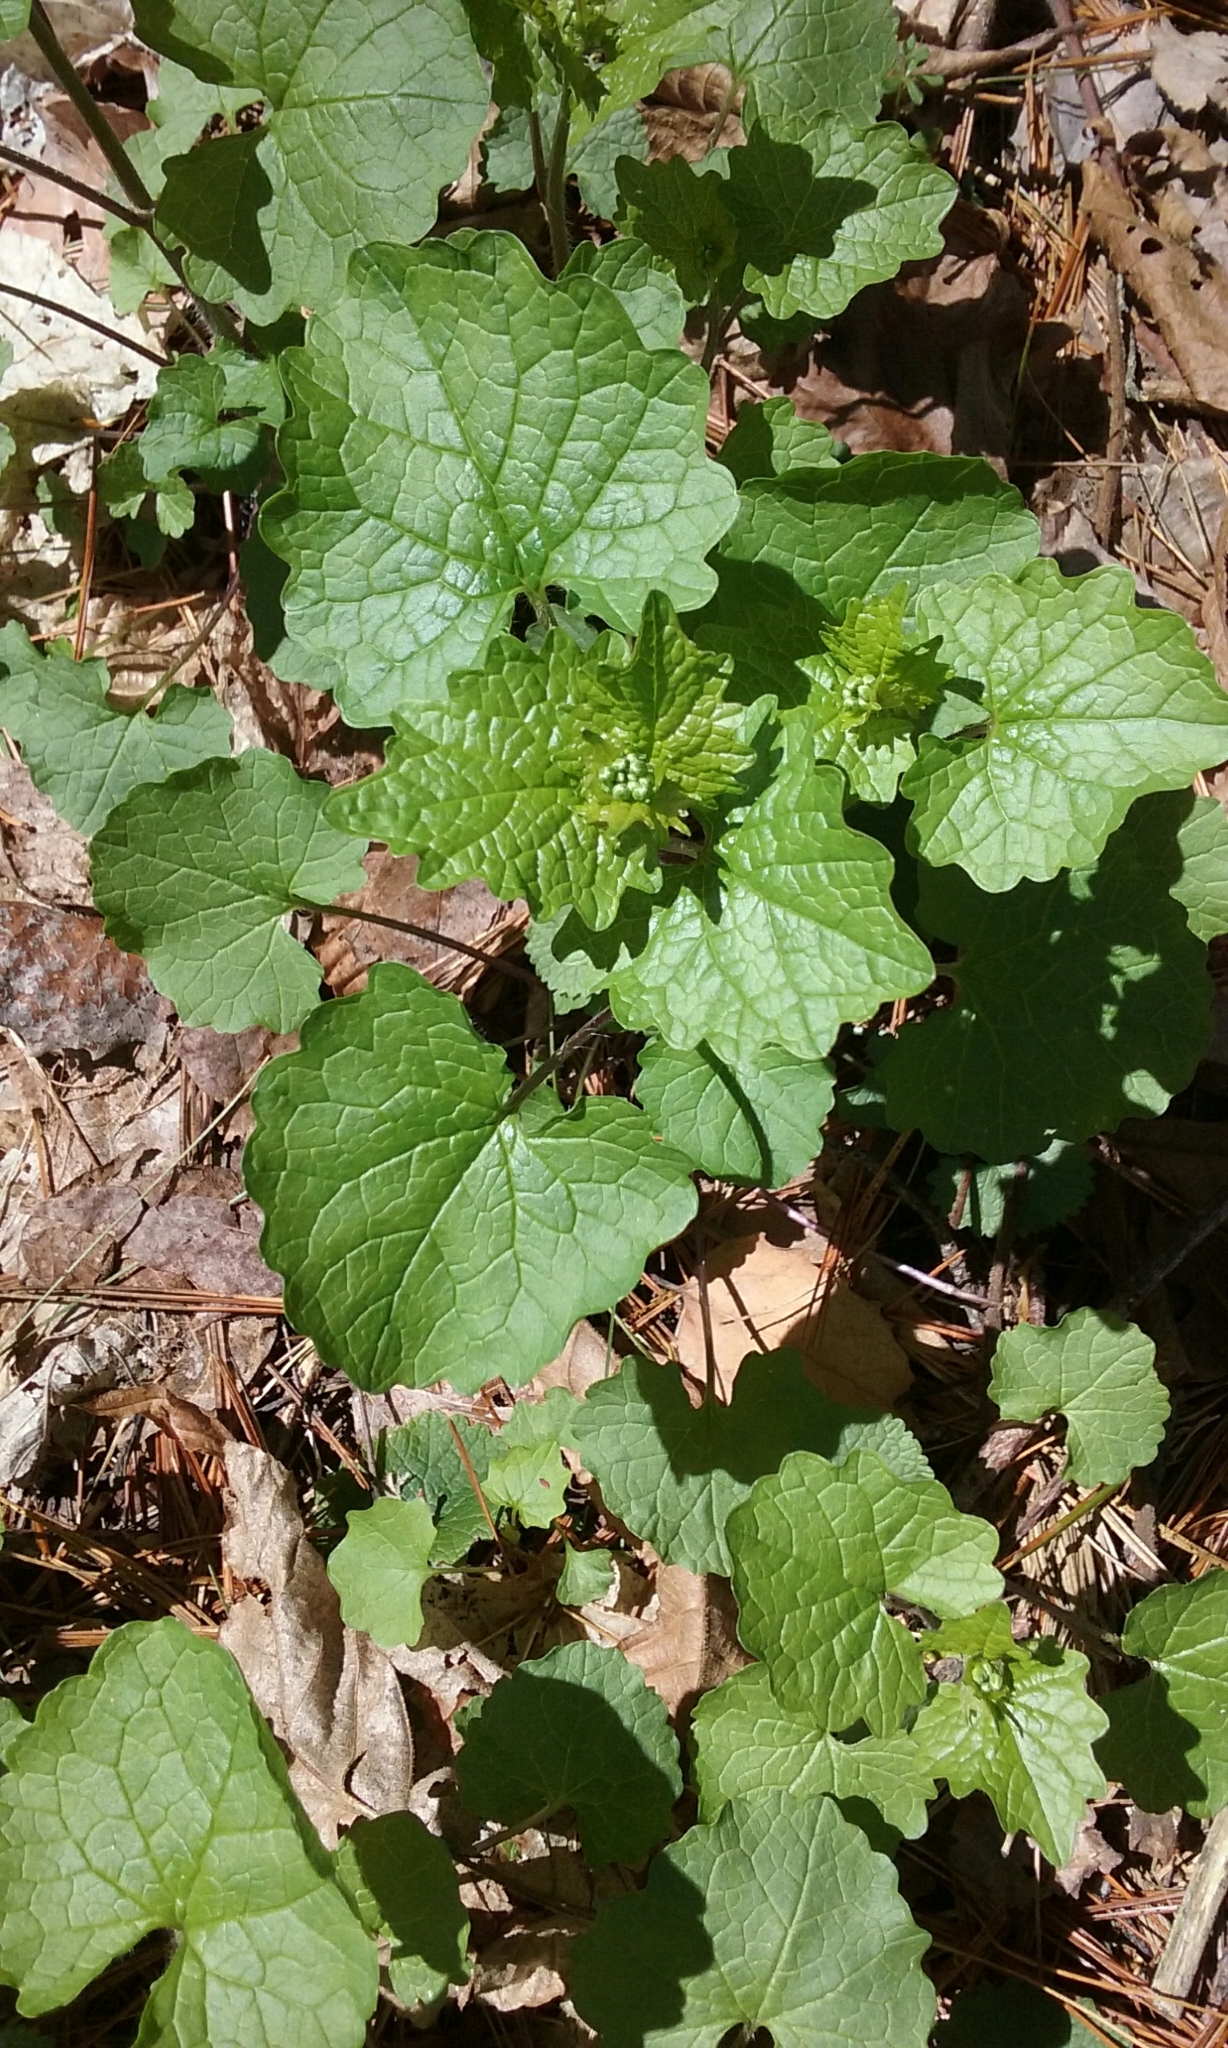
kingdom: Plantae
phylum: Tracheophyta
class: Magnoliopsida
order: Brassicales
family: Brassicaceae
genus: Alliaria
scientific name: Alliaria petiolata
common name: Garlic mustard
